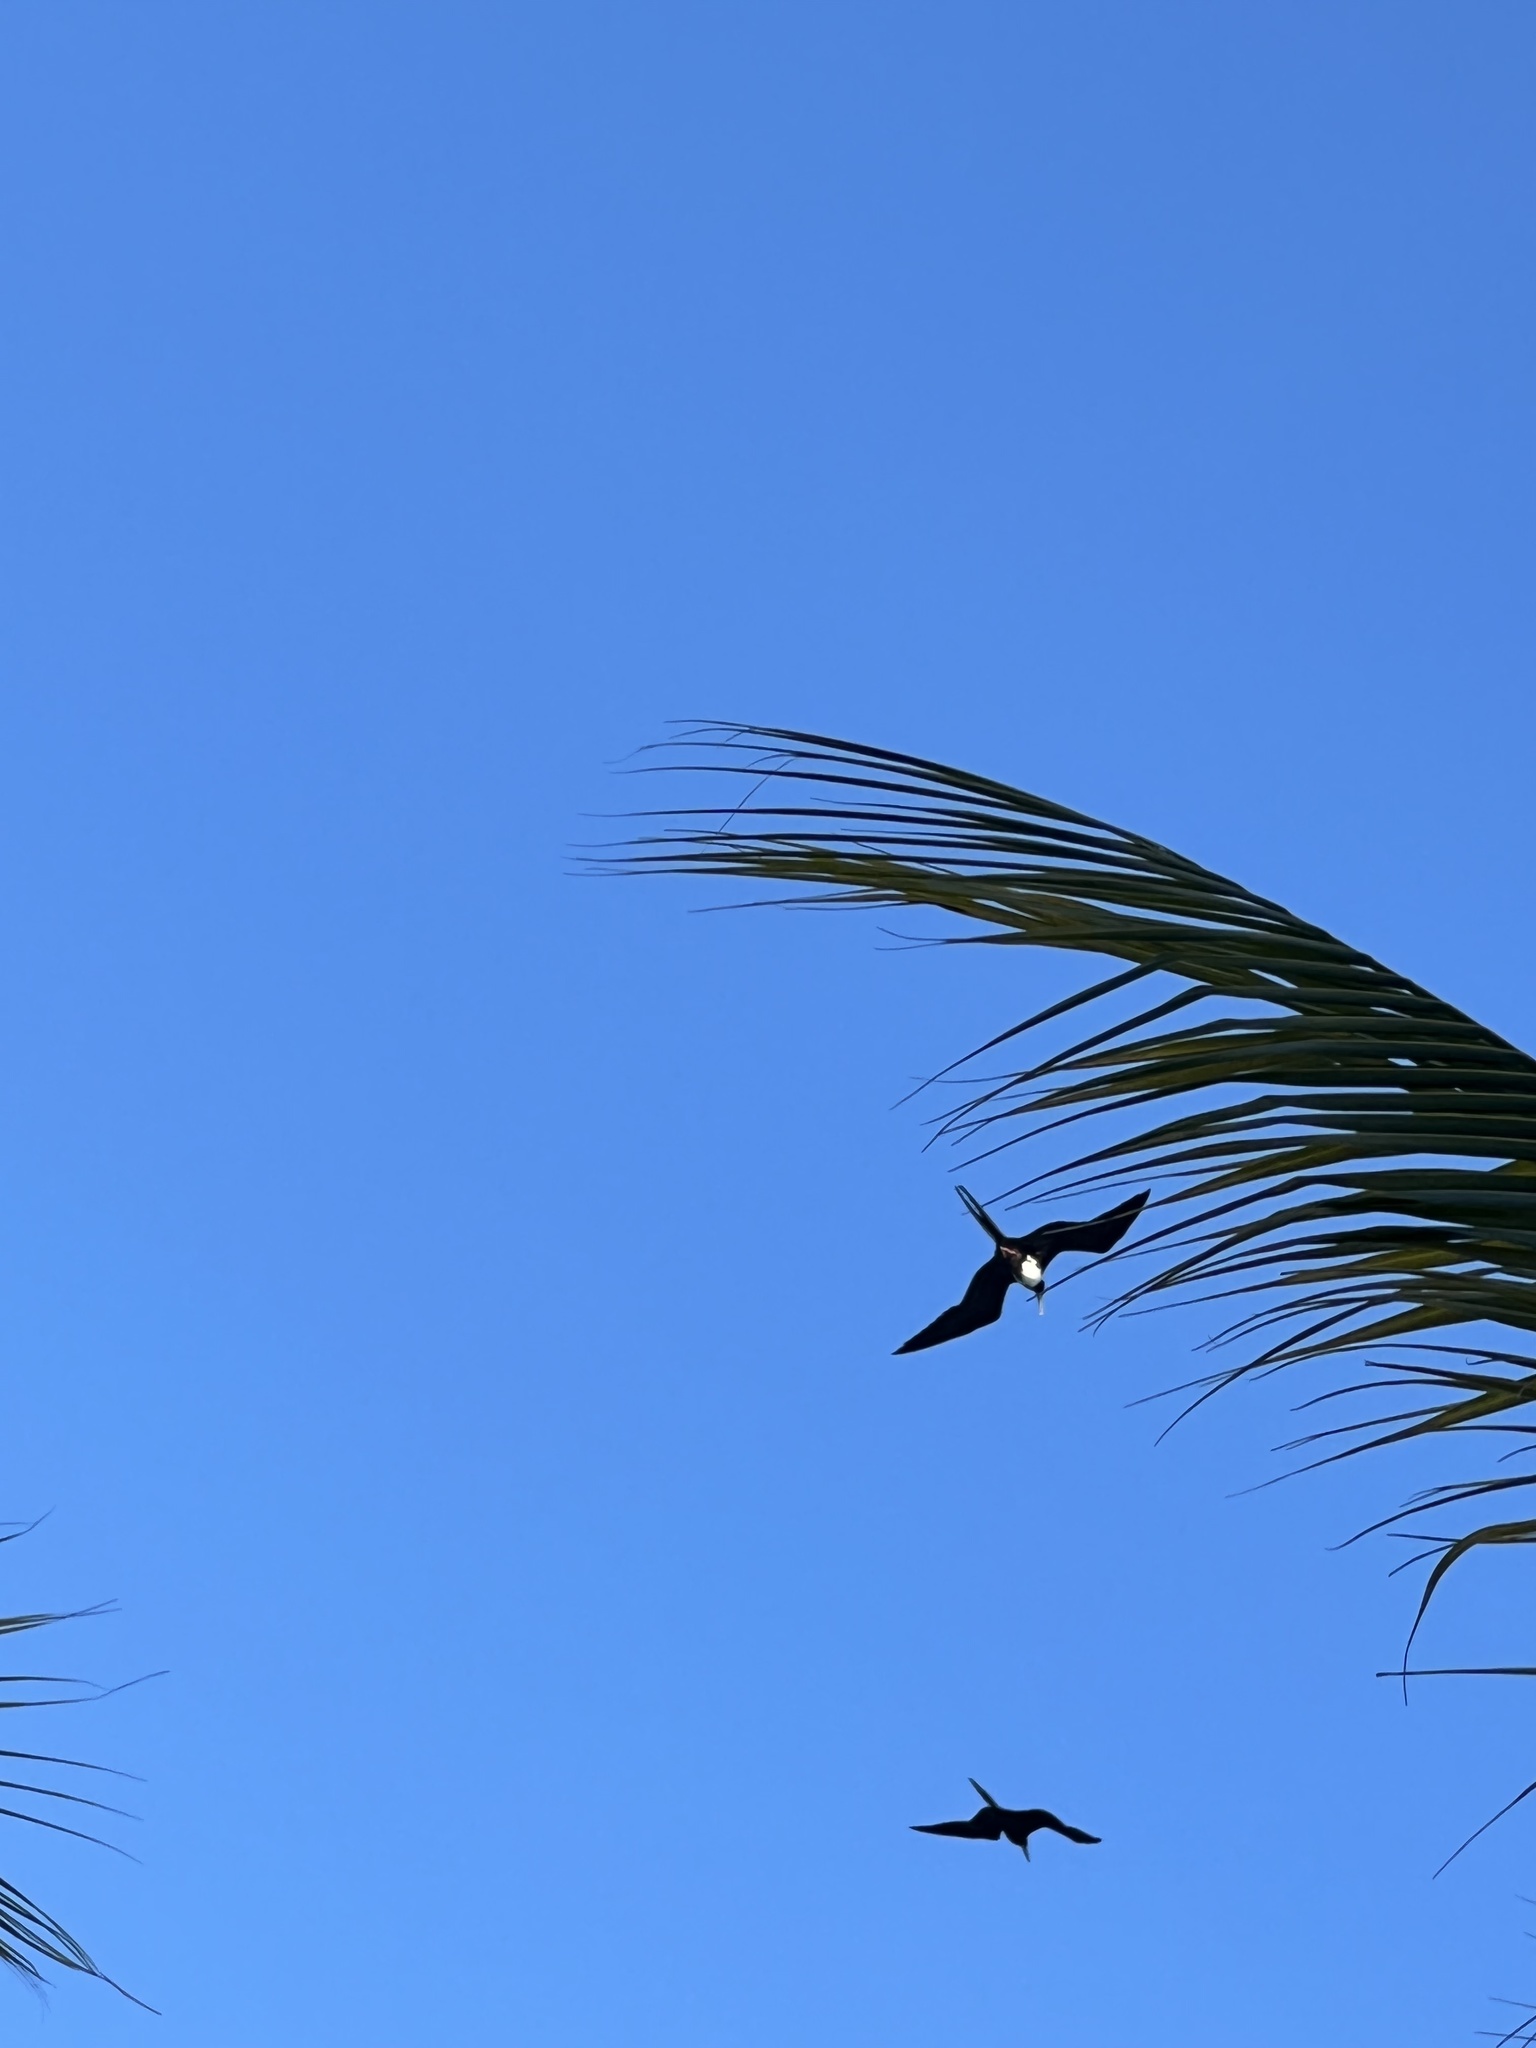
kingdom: Animalia
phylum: Chordata
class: Aves
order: Suliformes
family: Fregatidae
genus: Fregata
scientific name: Fregata magnificens
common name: Magnificent frigatebird
